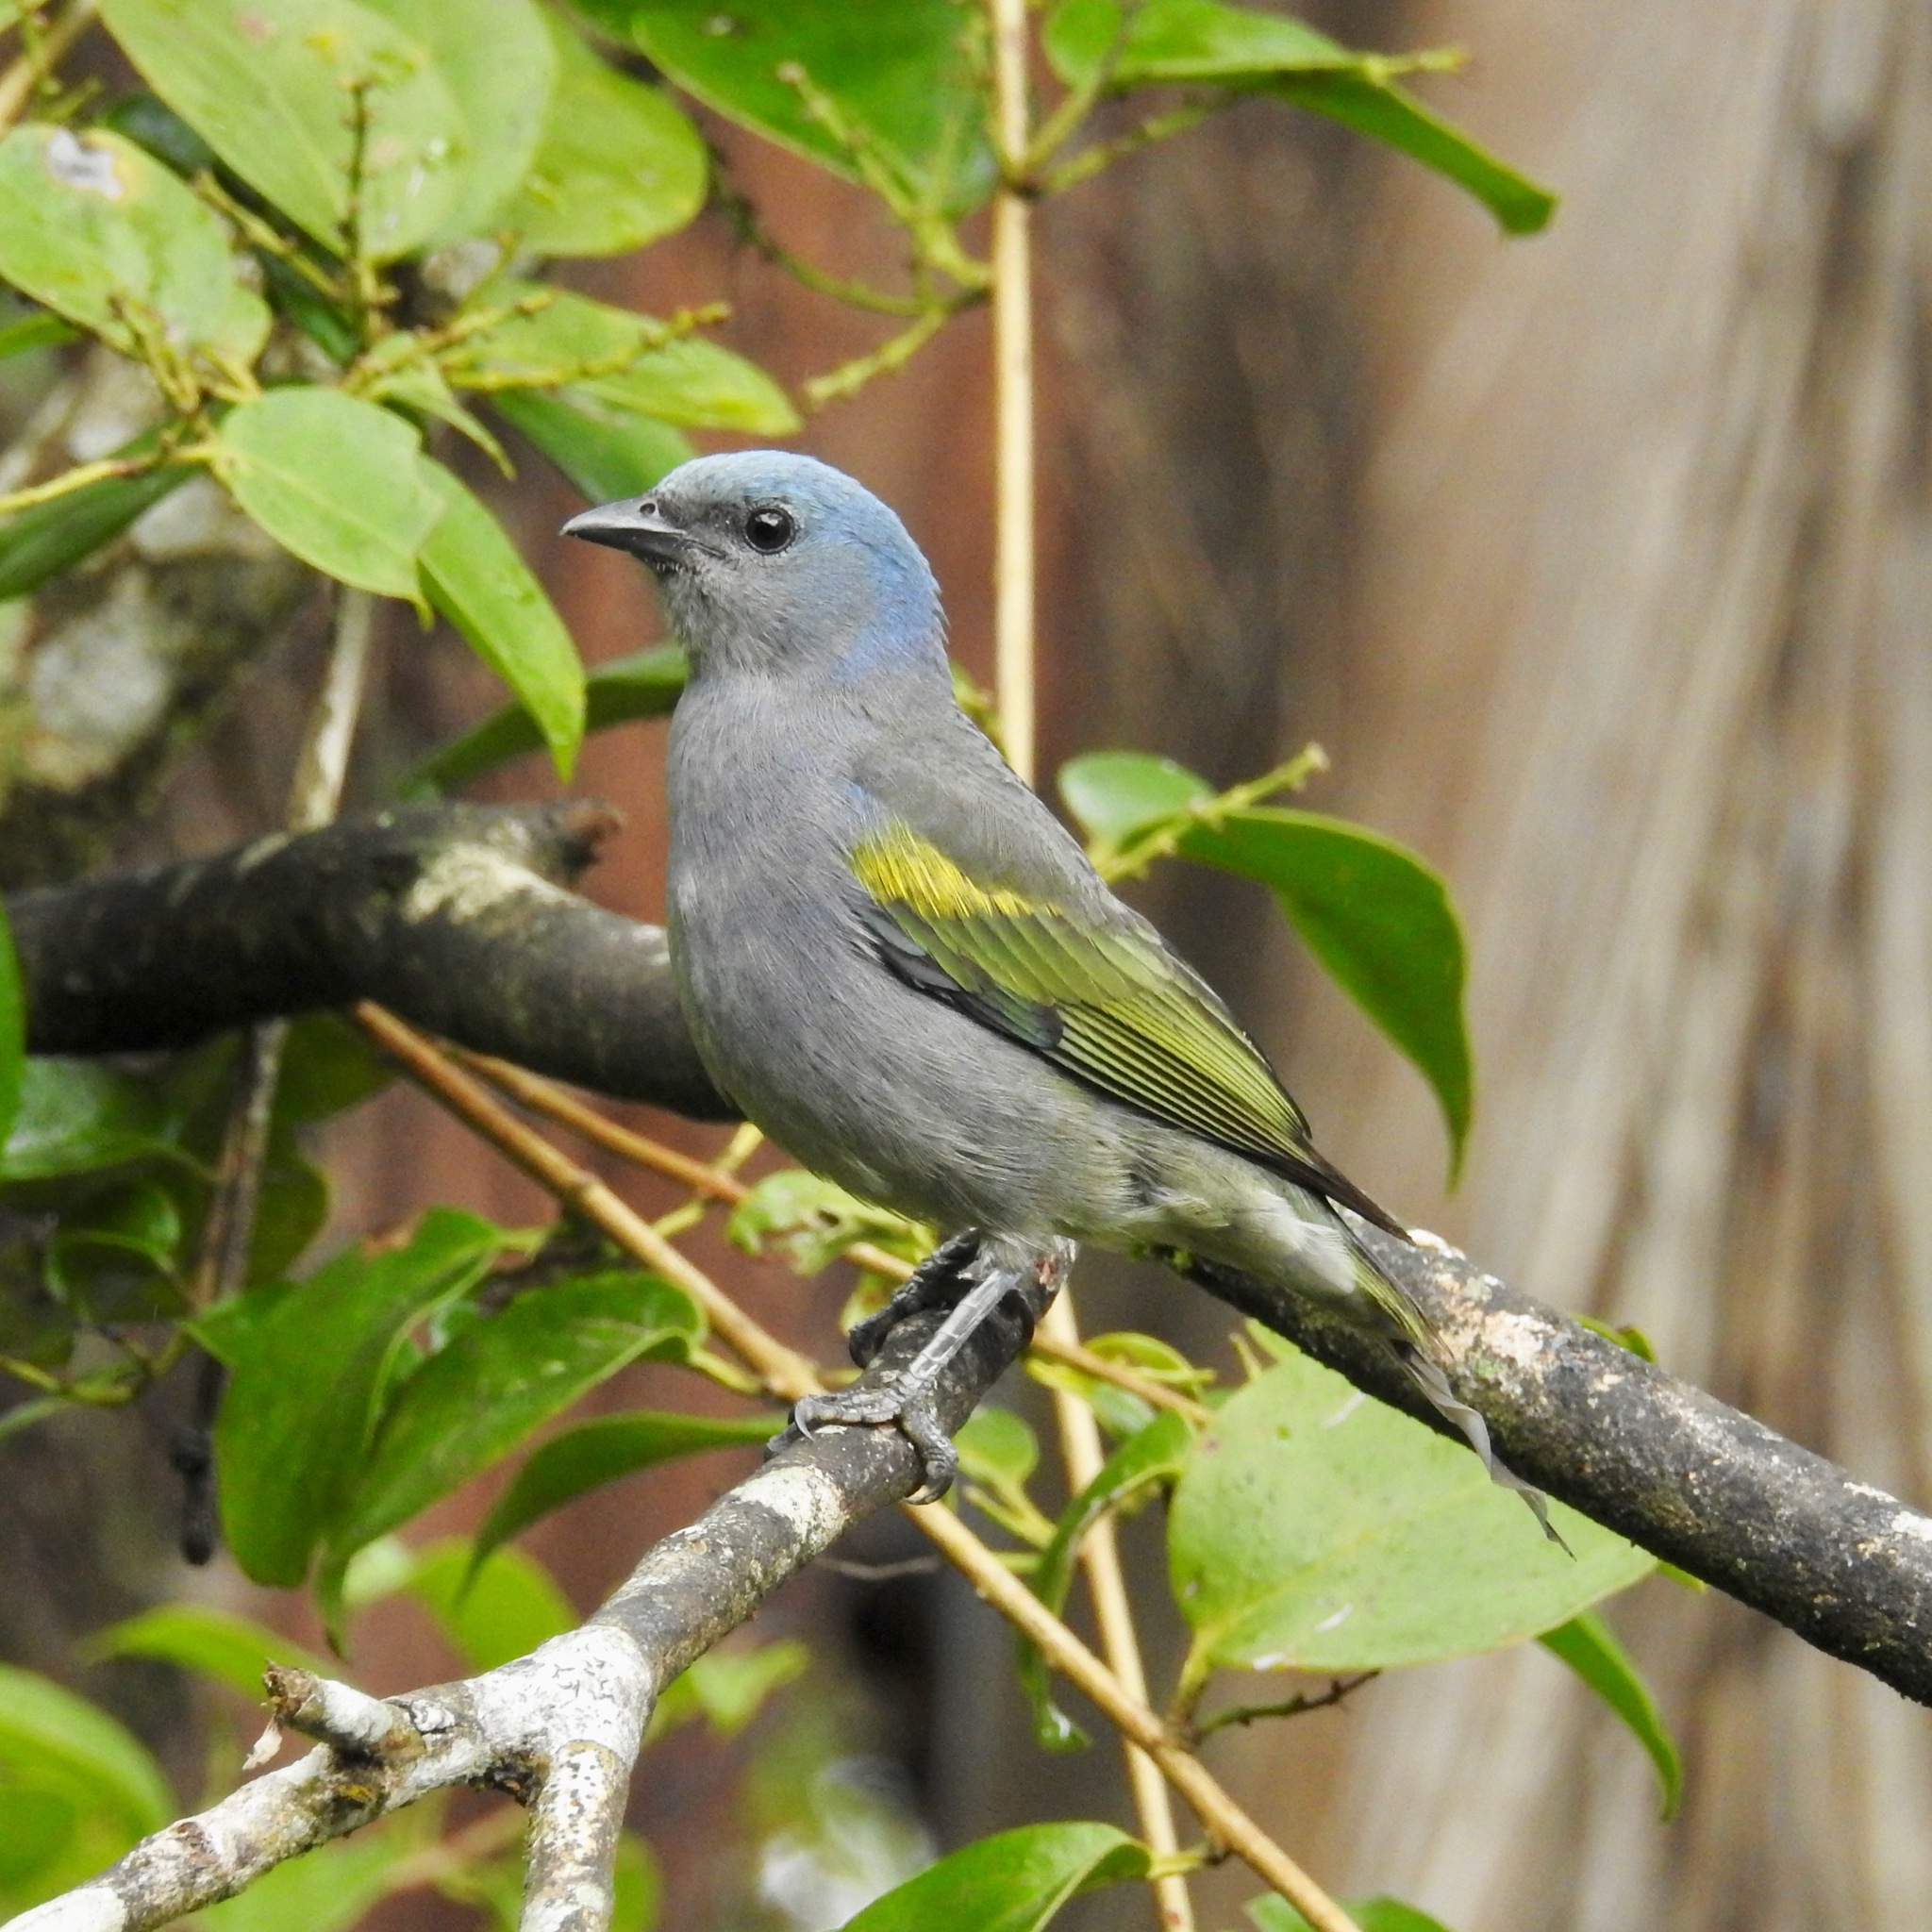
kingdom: Animalia
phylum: Chordata
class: Aves
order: Passeriformes
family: Thraupidae
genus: Thraupis
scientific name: Thraupis ornata
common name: Golden-chevroned tanager
